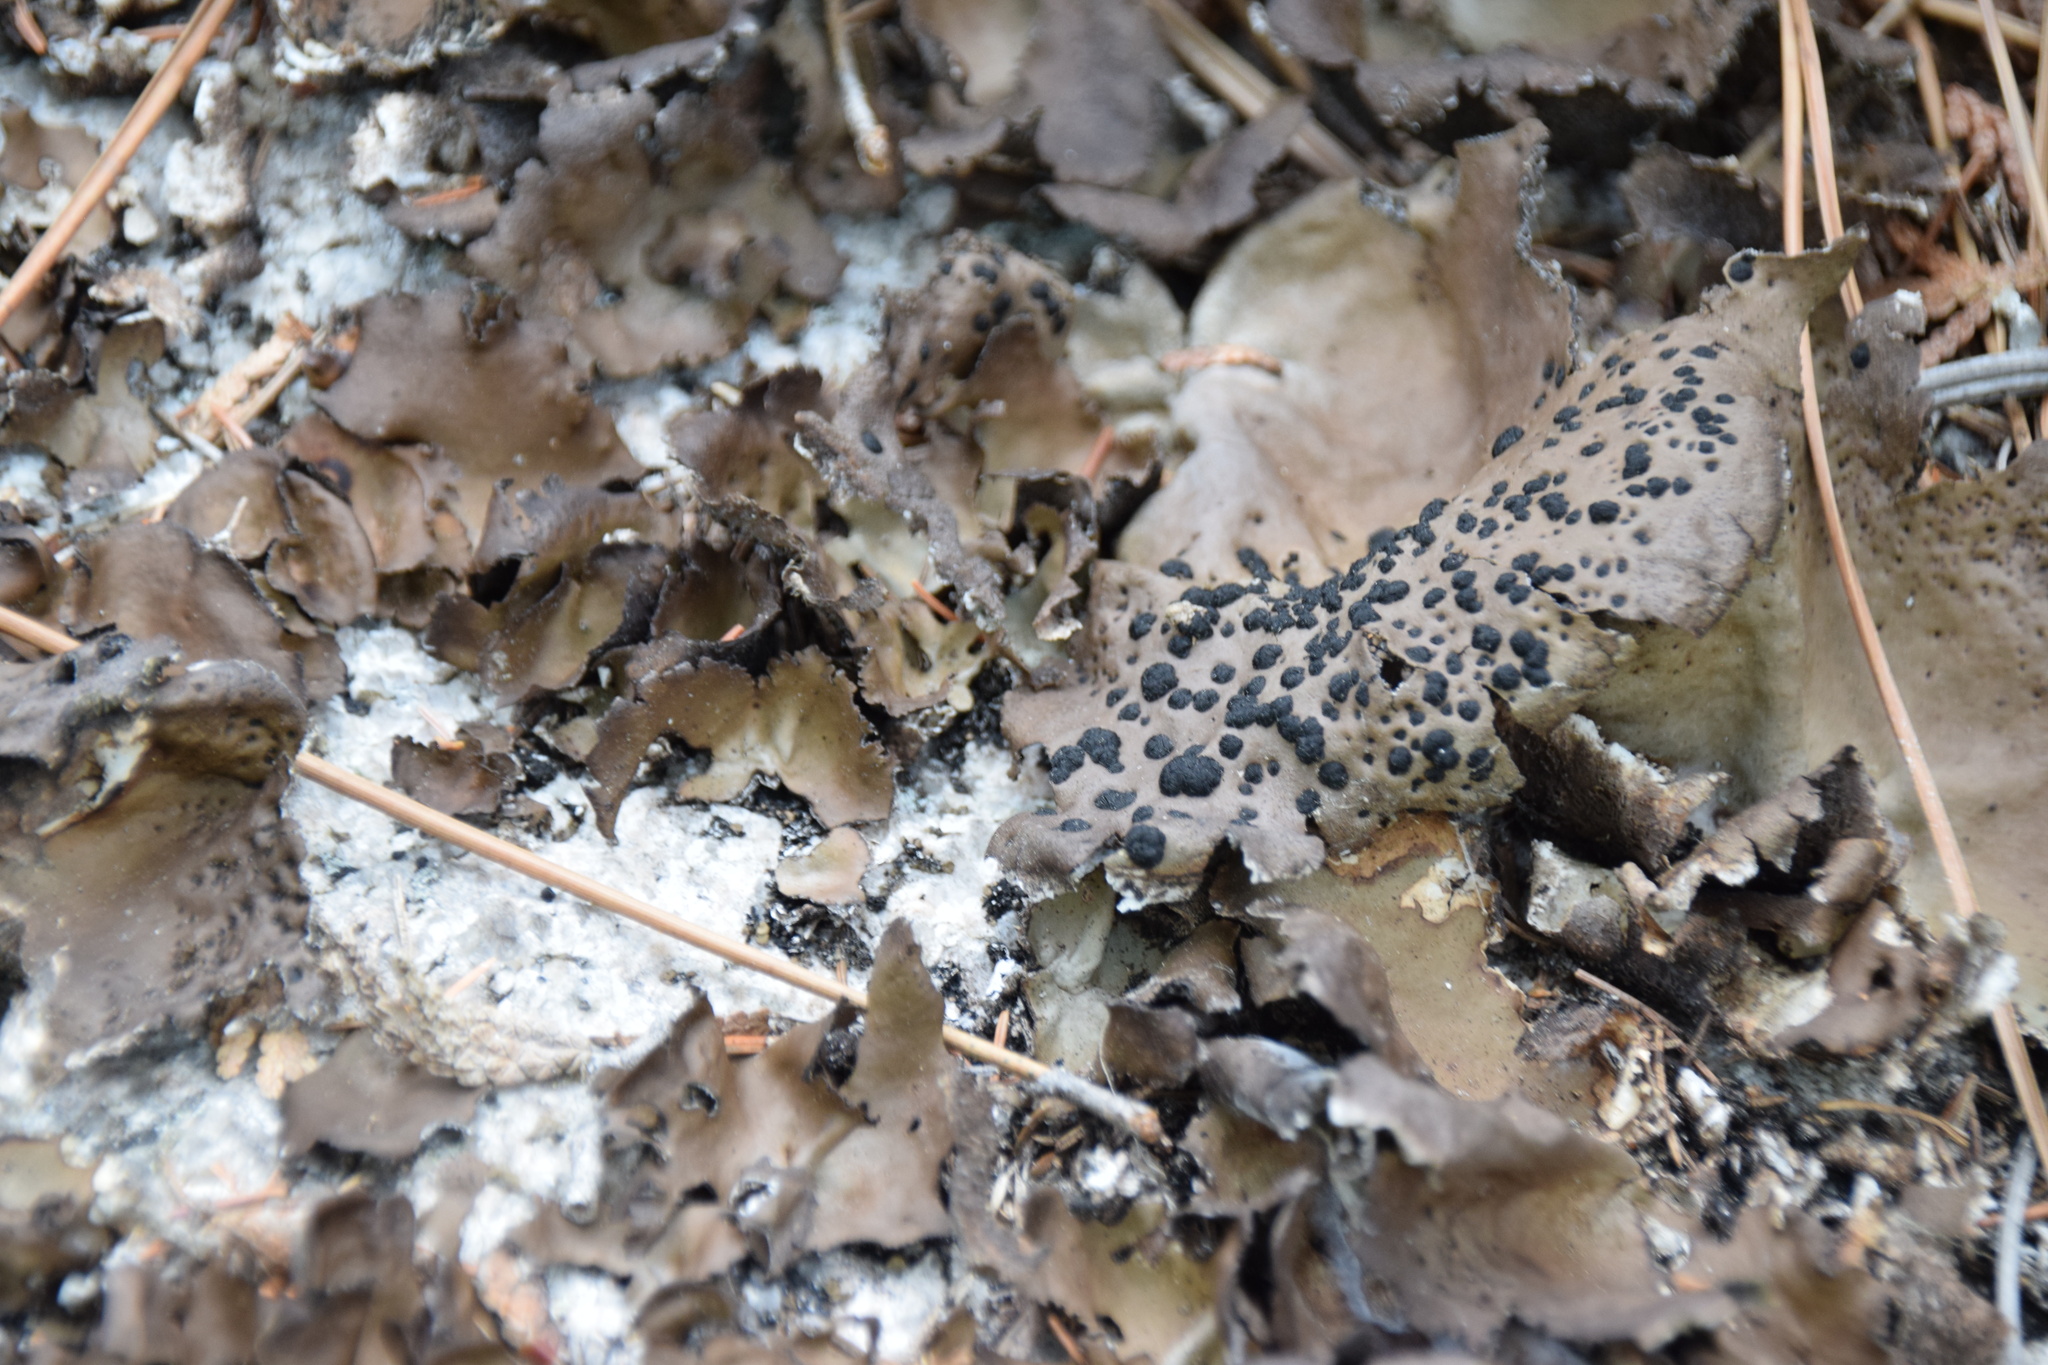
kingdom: Fungi
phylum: Ascomycota
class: Lecanoromycetes
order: Umbilicariales
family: Umbilicariaceae
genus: Umbilicaria
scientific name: Umbilicaria muhlenbergii
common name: Lesser rocktripe
